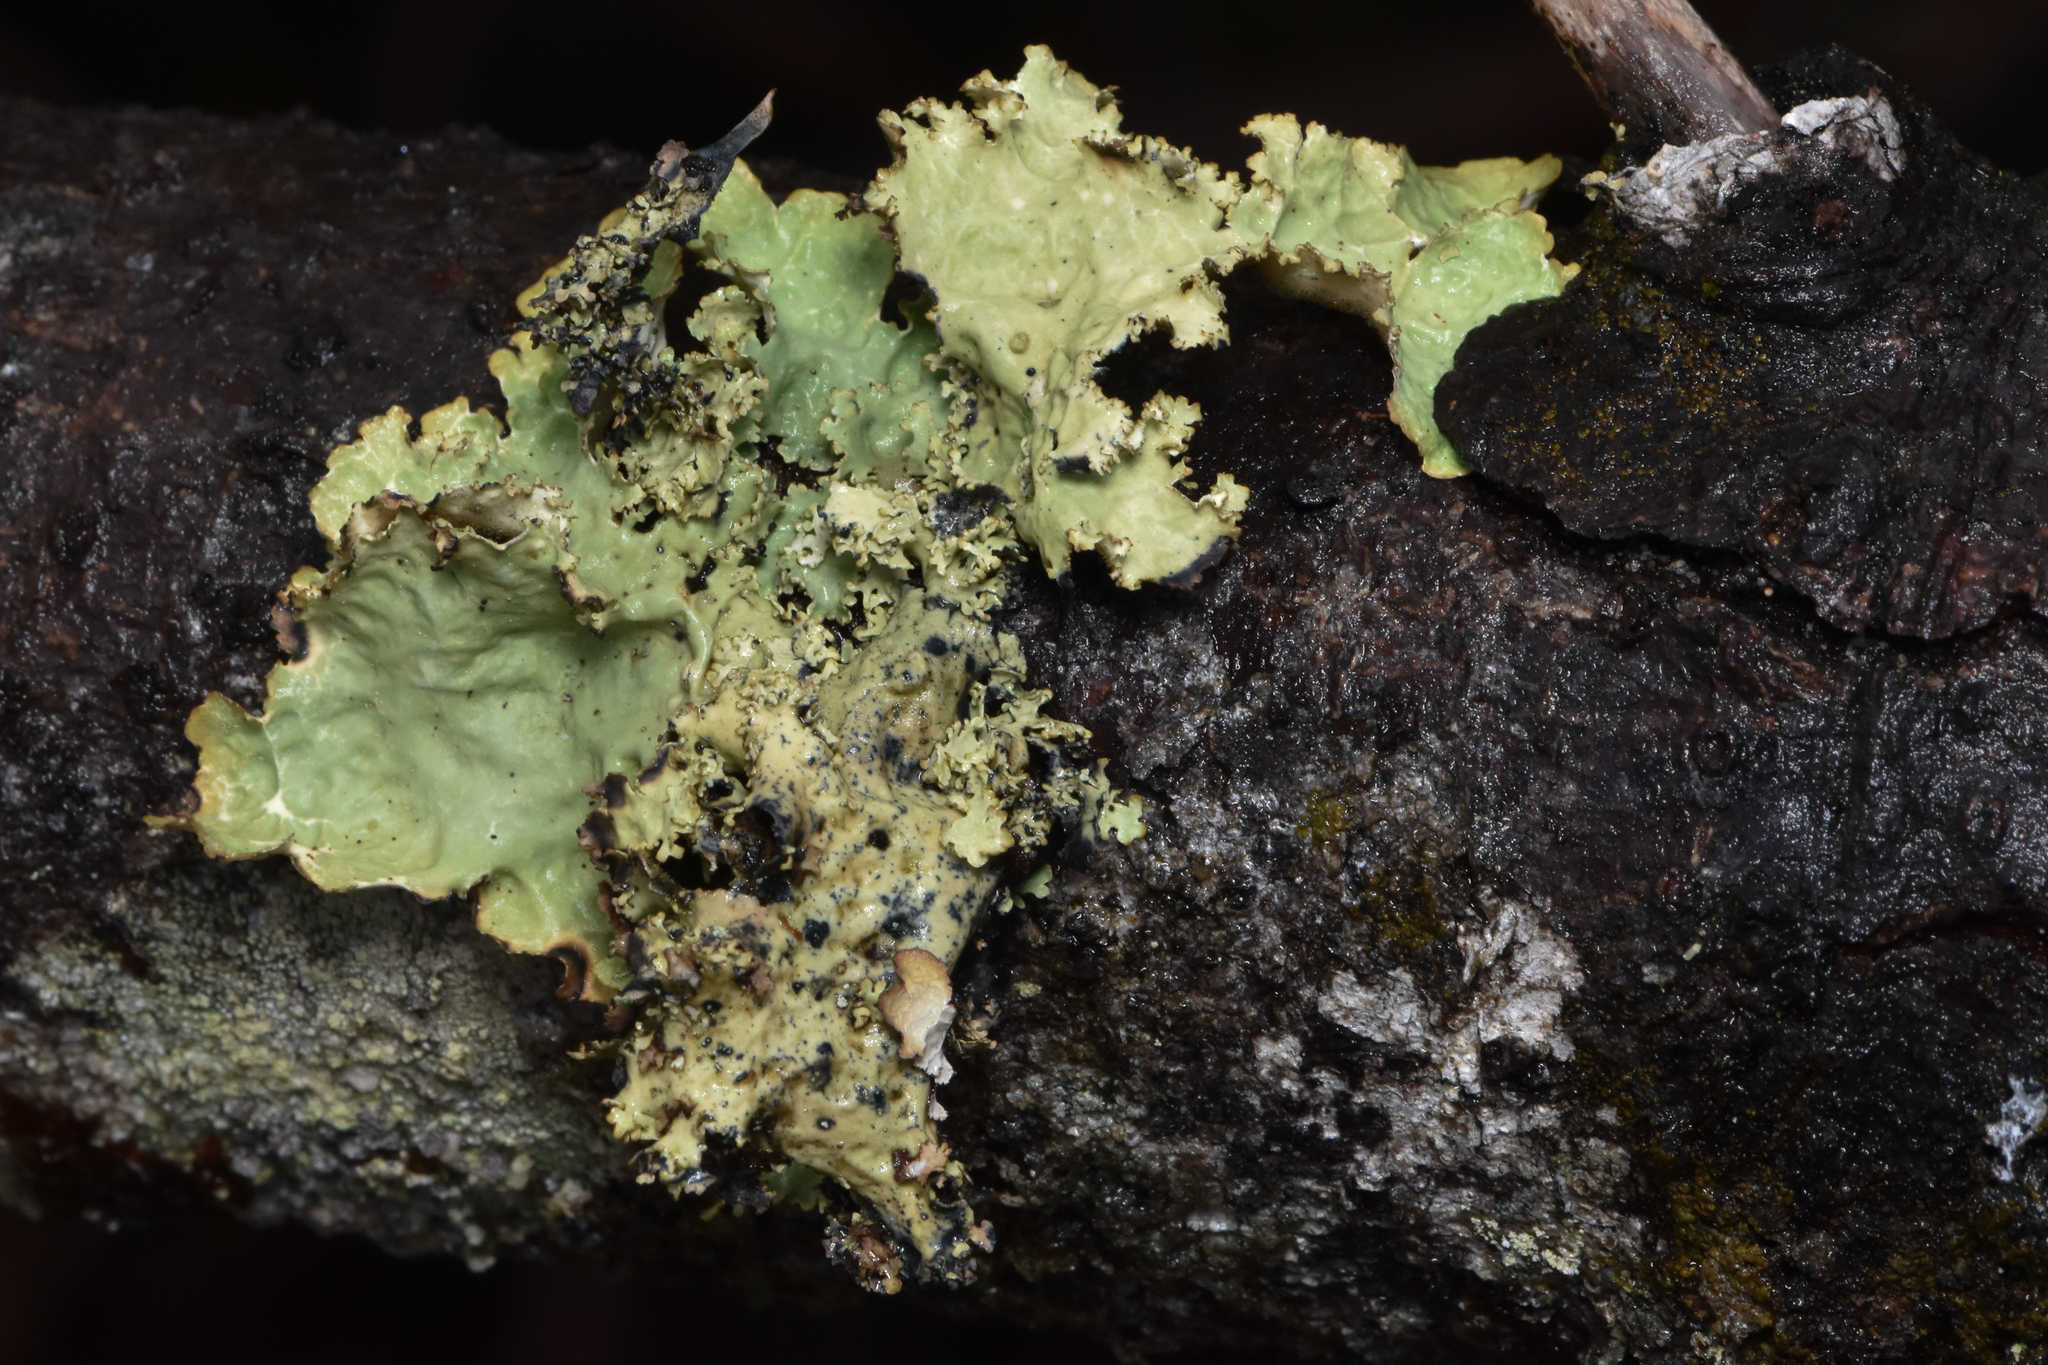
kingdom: Fungi
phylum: Ascomycota
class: Lecanoromycetes
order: Peltigerales
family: Lobariaceae
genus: Lobaria
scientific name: Lobaria oregana
